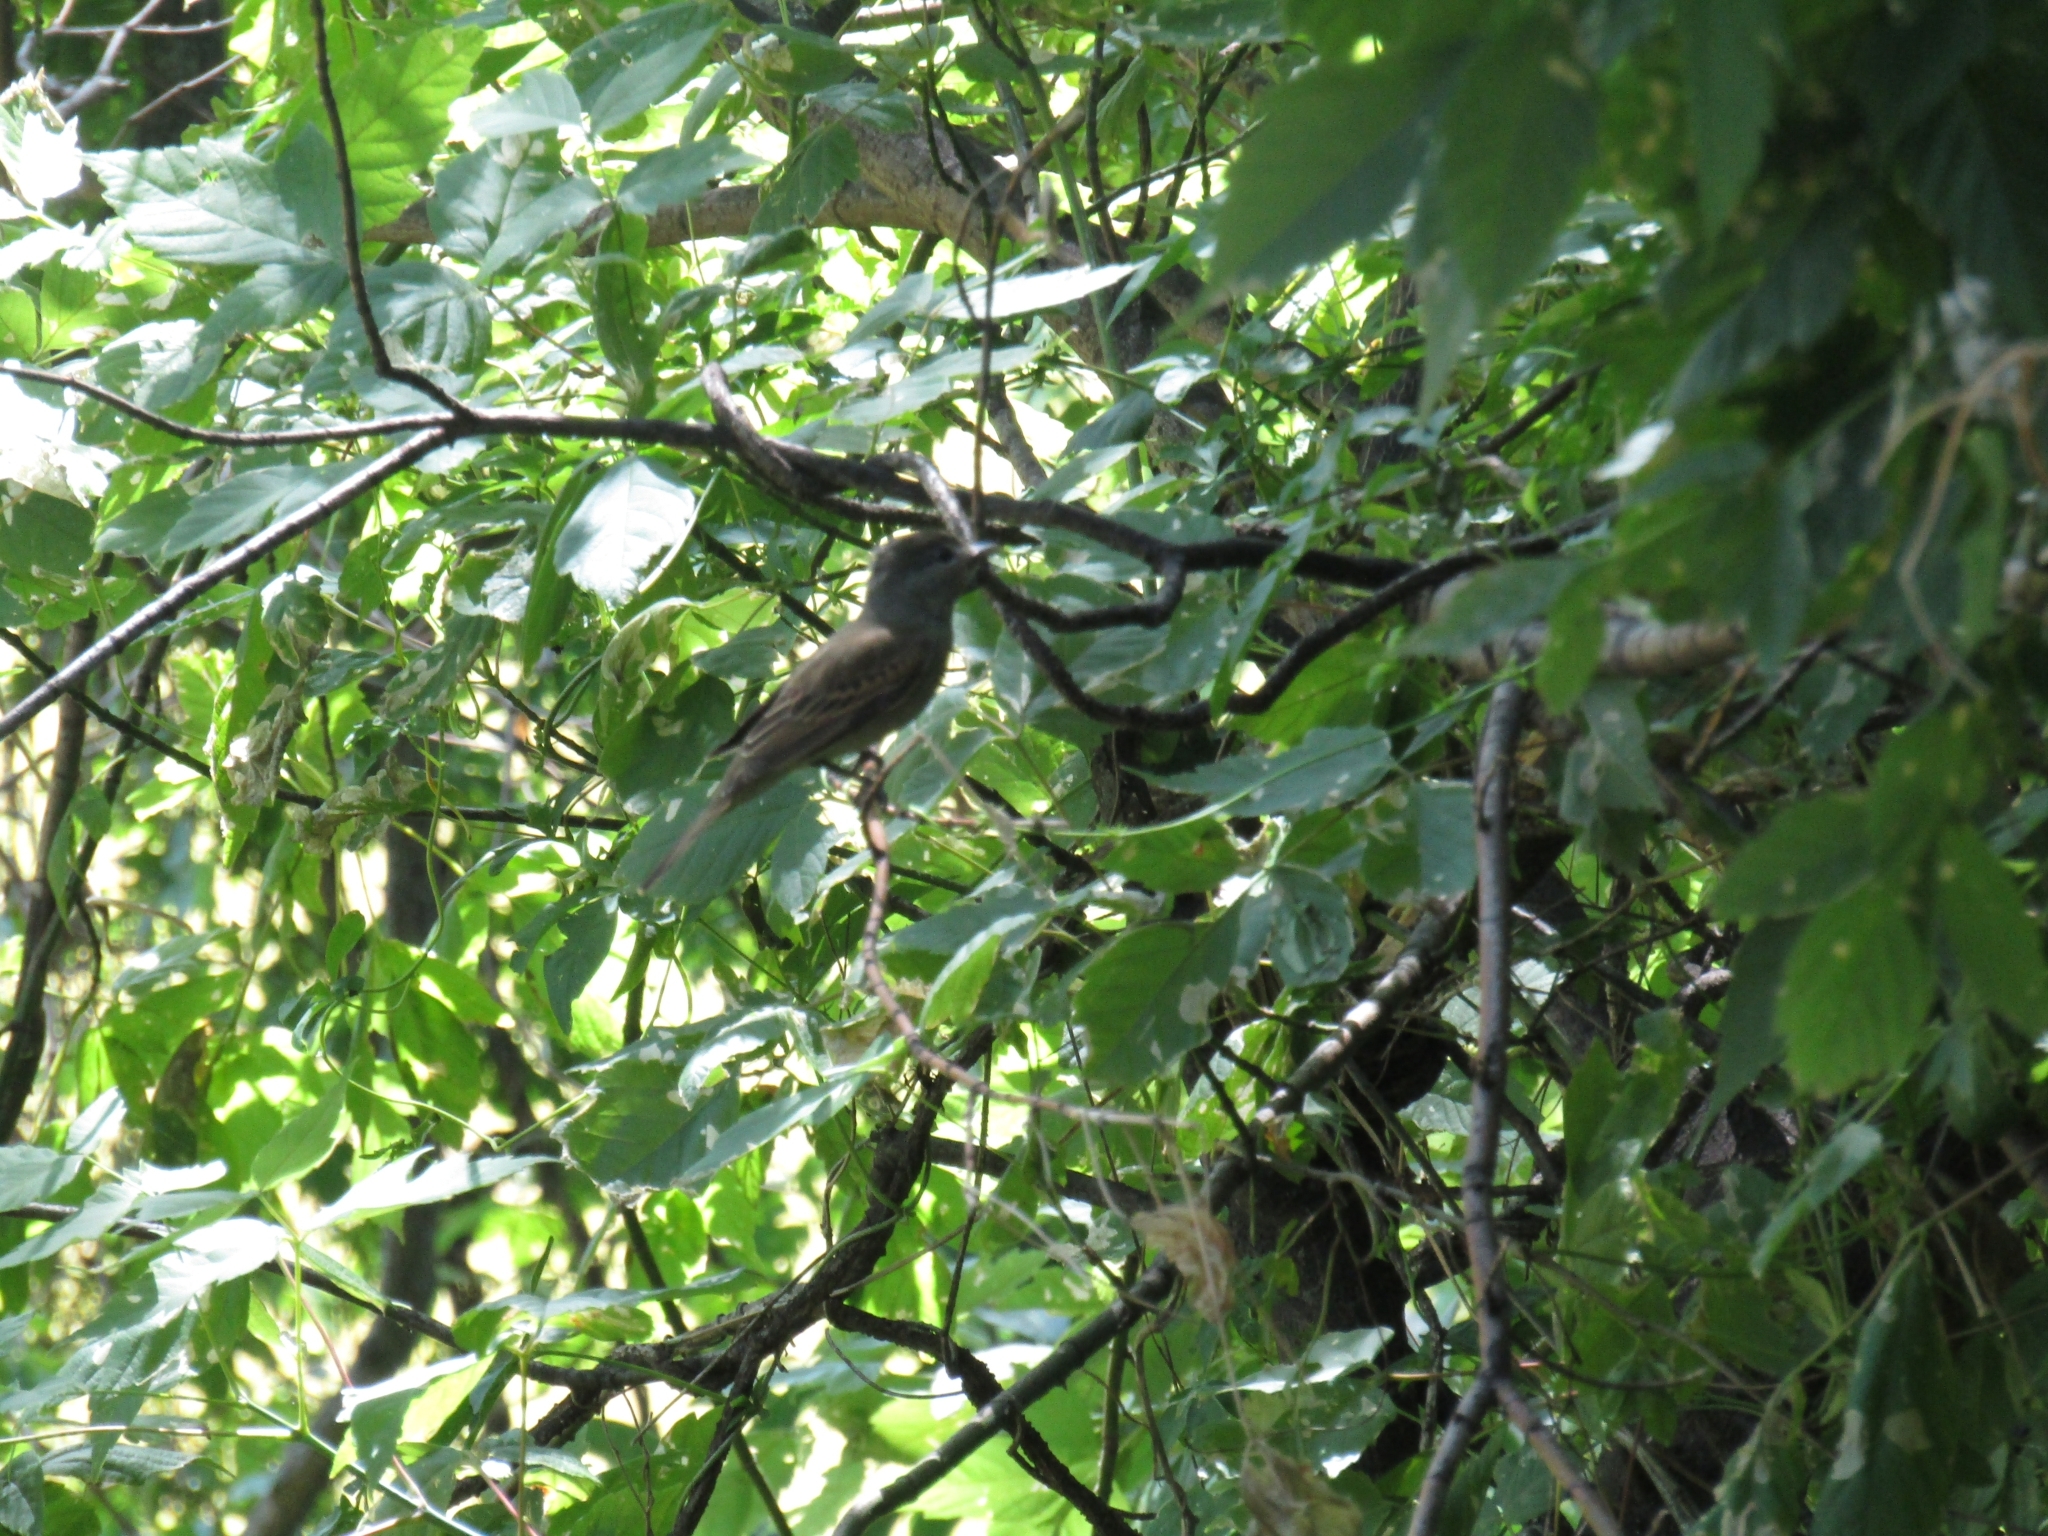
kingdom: Animalia
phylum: Chordata
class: Aves
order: Passeriformes
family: Cotingidae
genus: Pachyramphus
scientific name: Pachyramphus polychopterus
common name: White-winged becard
